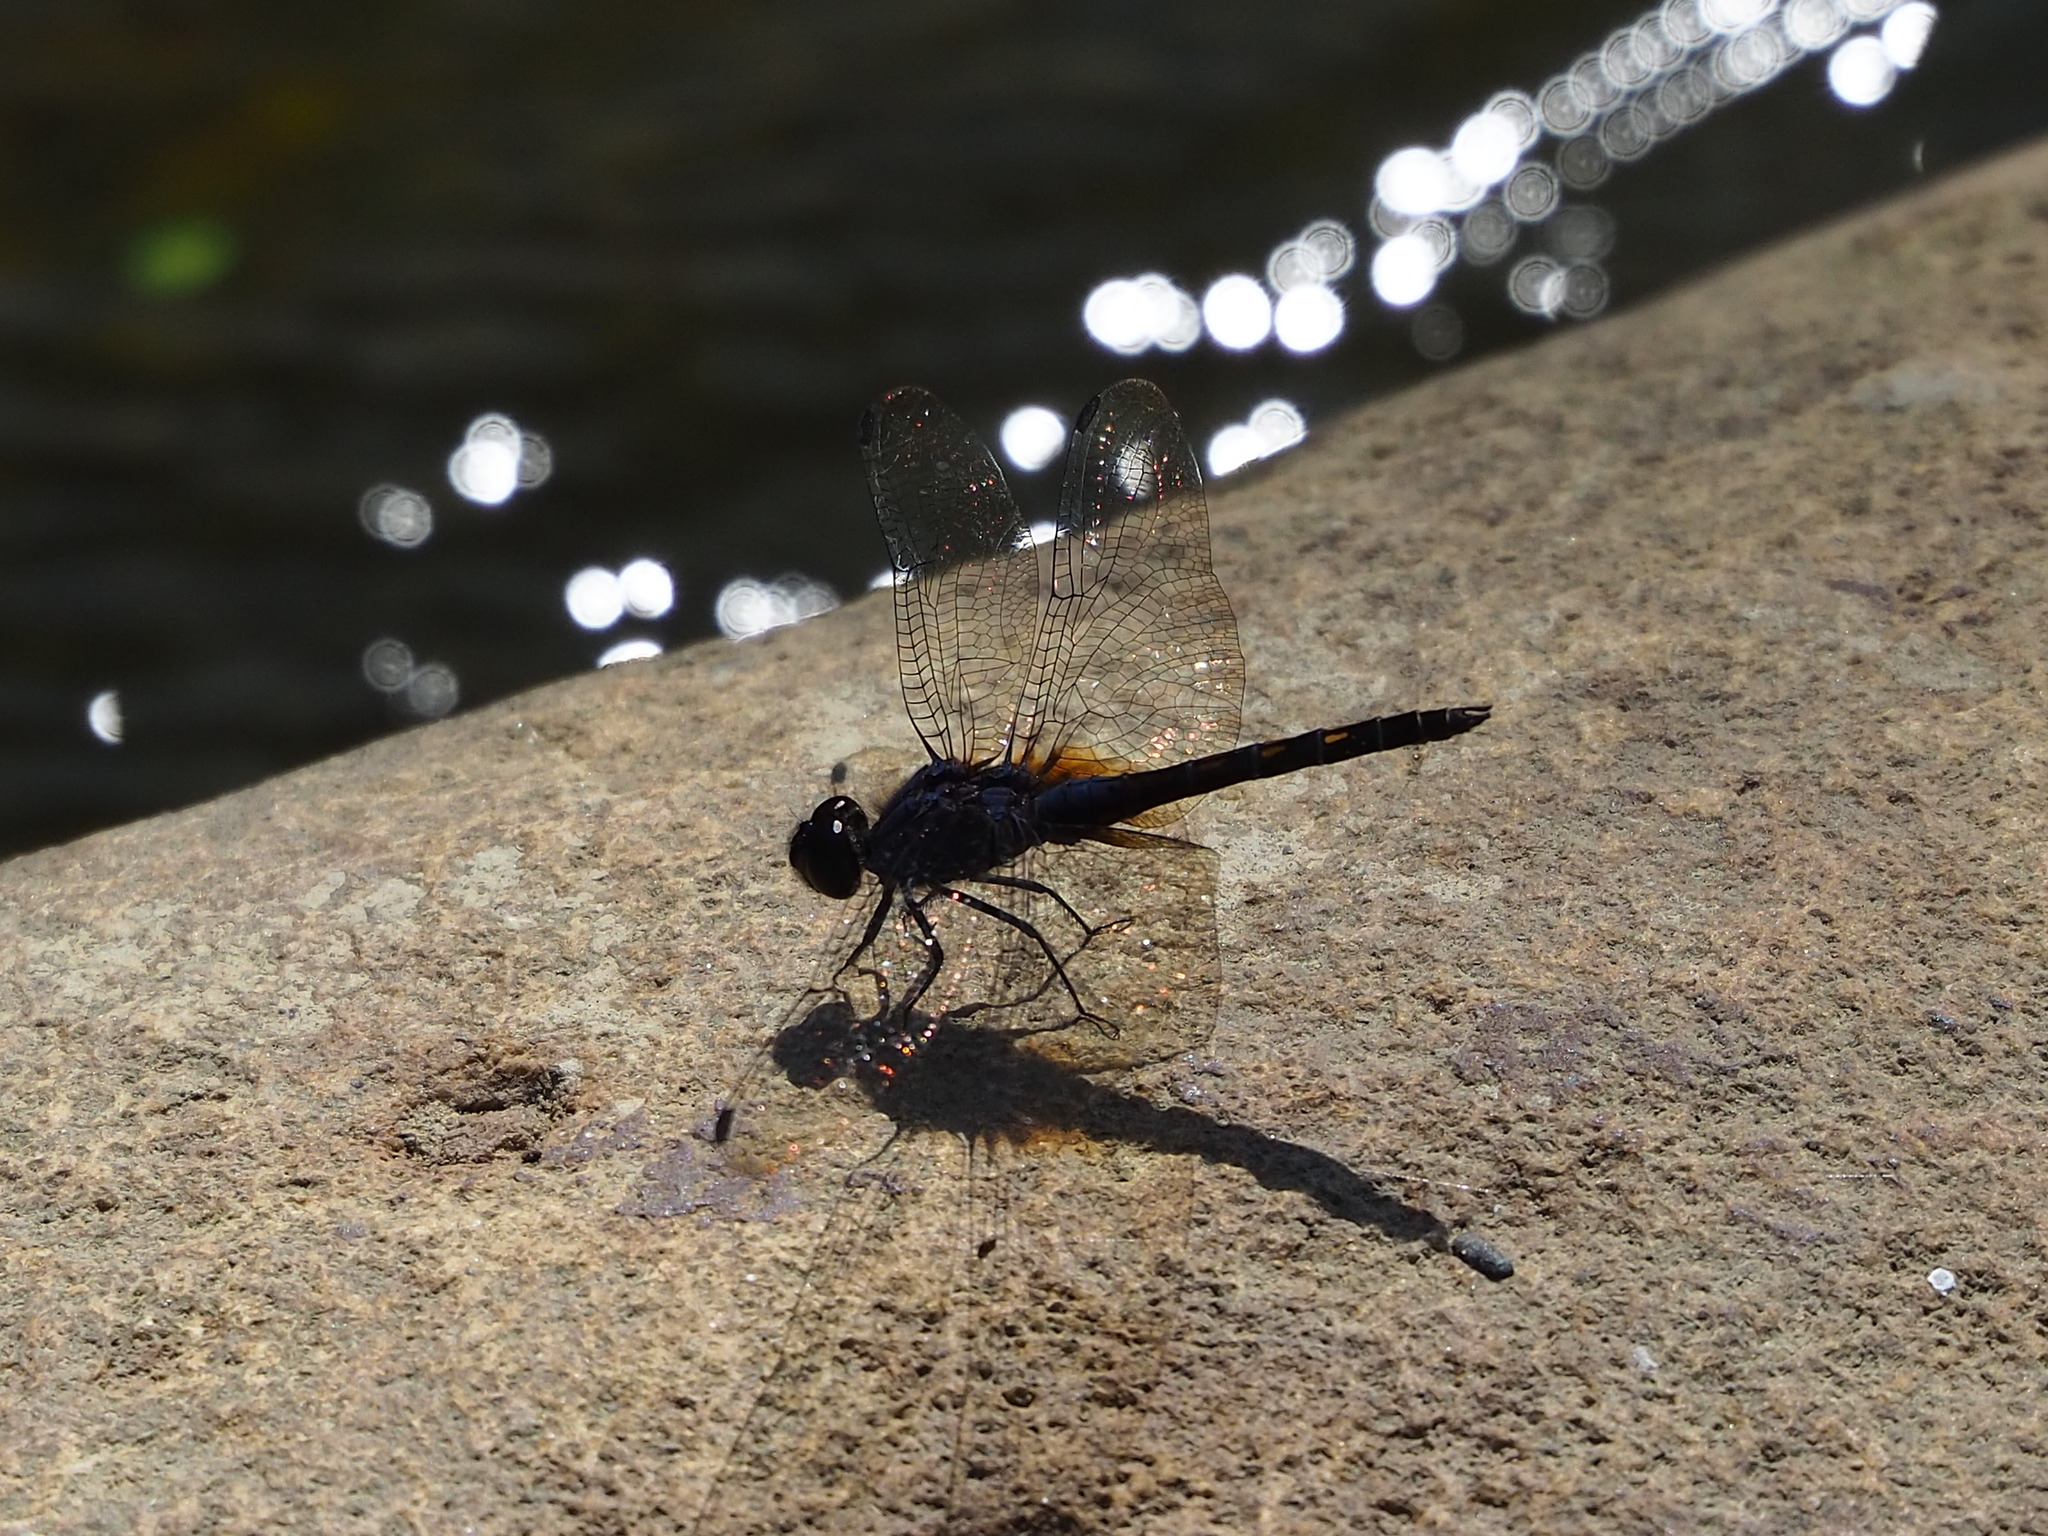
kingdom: Animalia
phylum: Arthropoda
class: Insecta
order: Odonata
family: Libellulidae
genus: Trithemis
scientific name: Trithemis festiva
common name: Indigo dropwing
